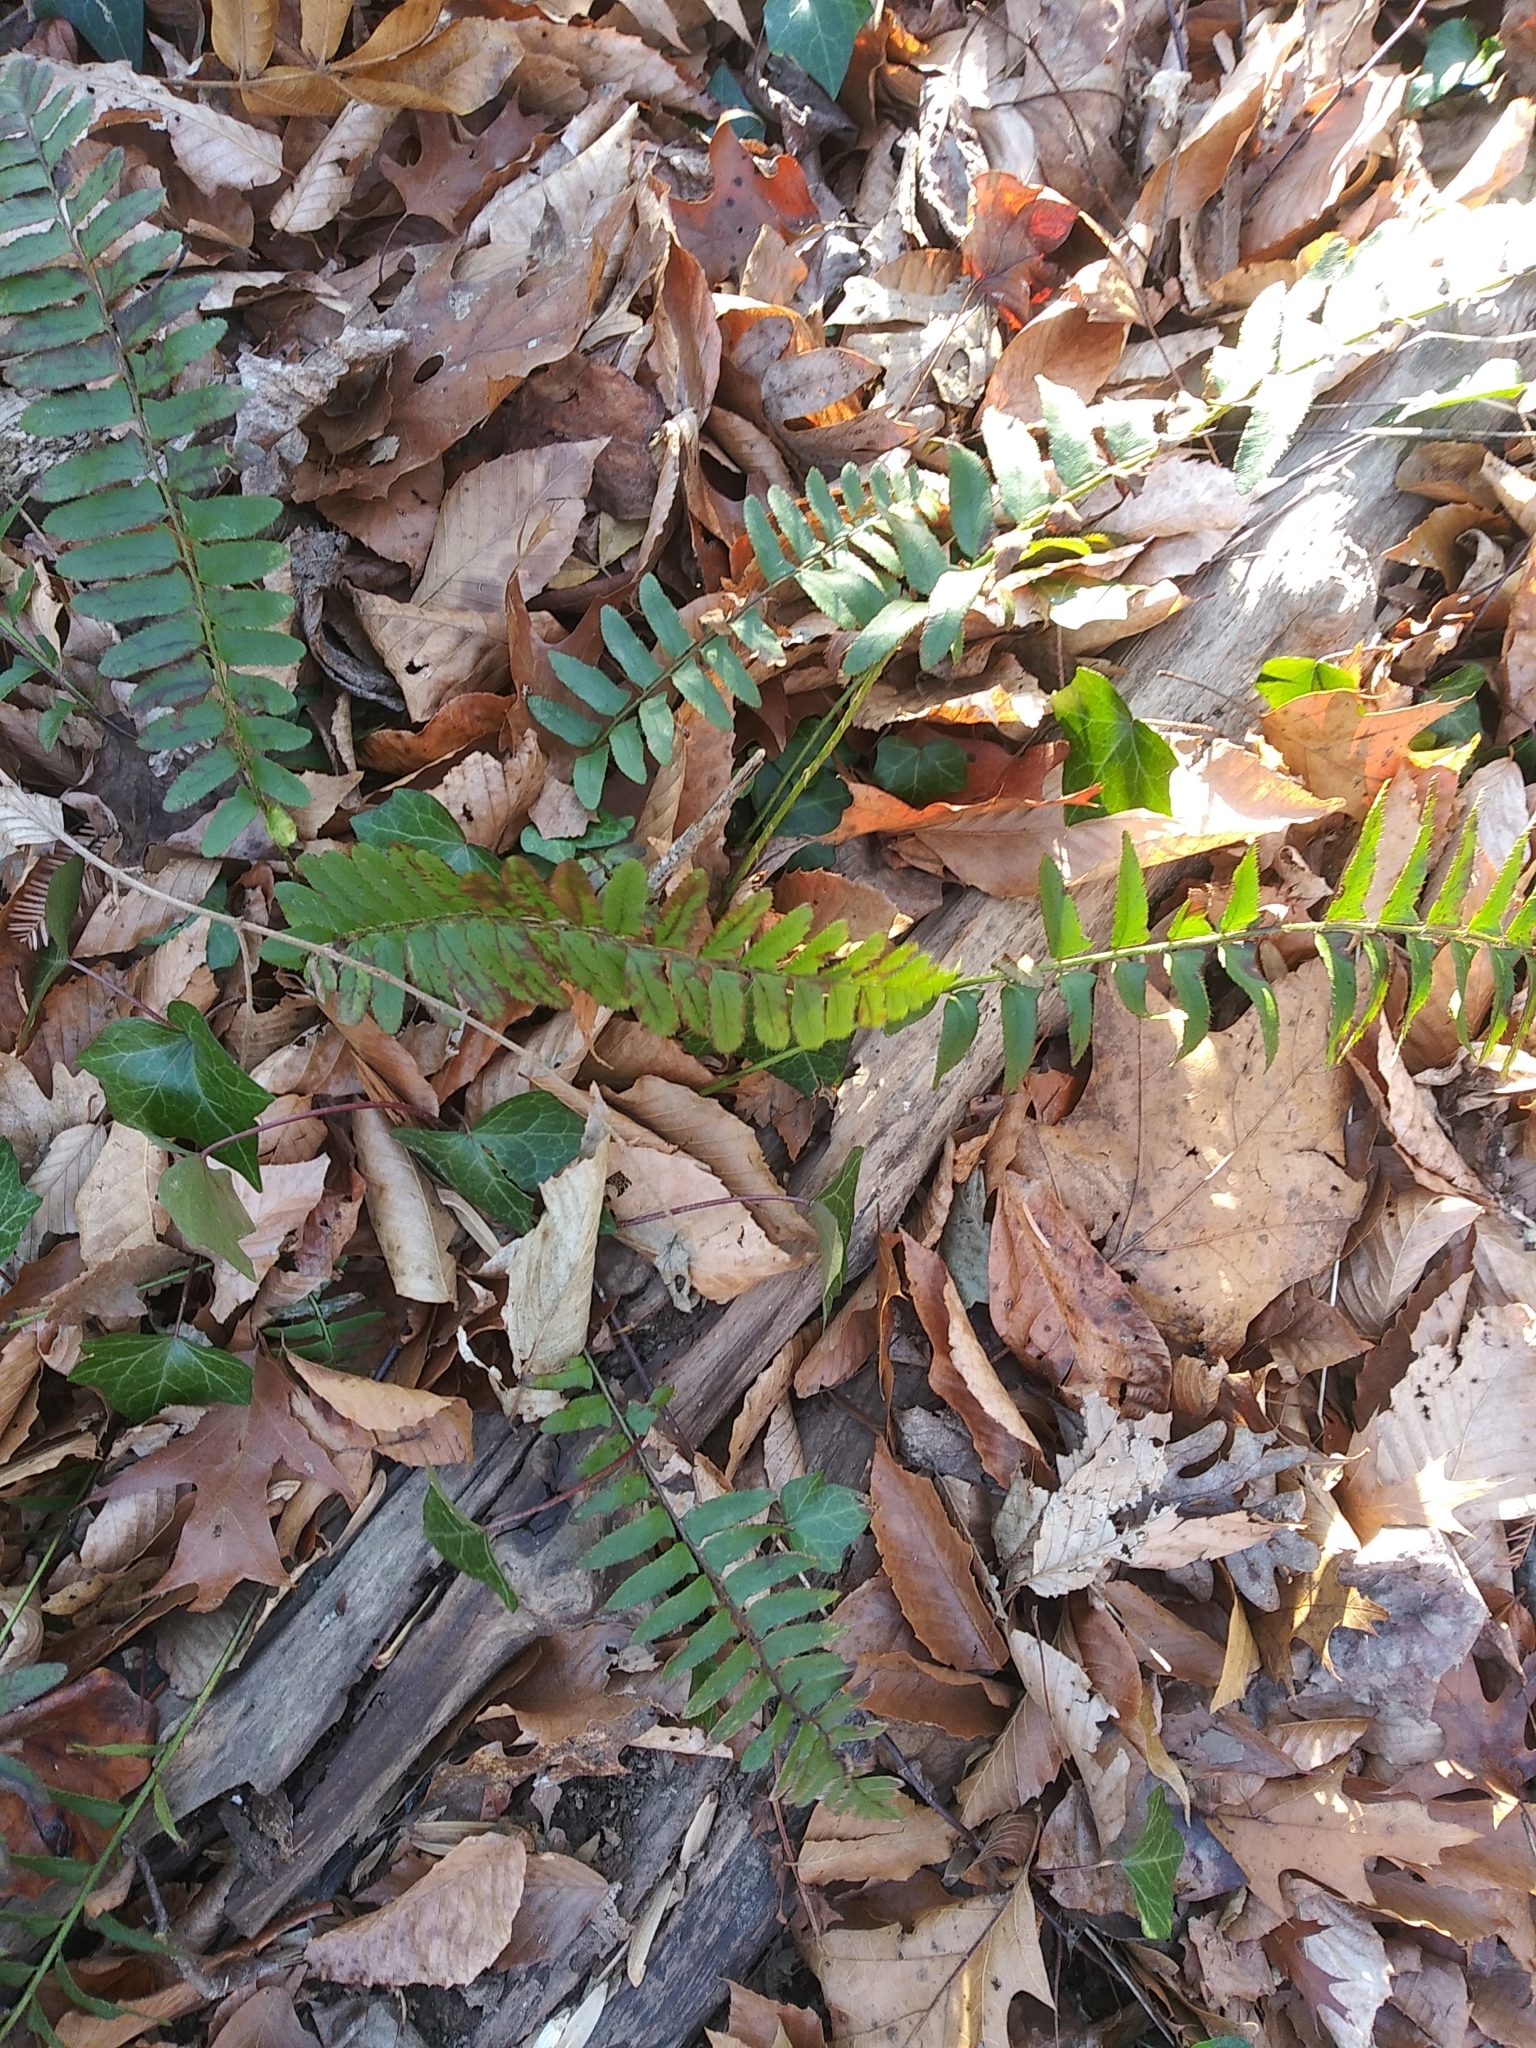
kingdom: Plantae
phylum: Tracheophyta
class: Polypodiopsida
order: Polypodiales
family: Dryopteridaceae
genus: Polystichum
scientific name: Polystichum acrostichoides
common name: Christmas fern
